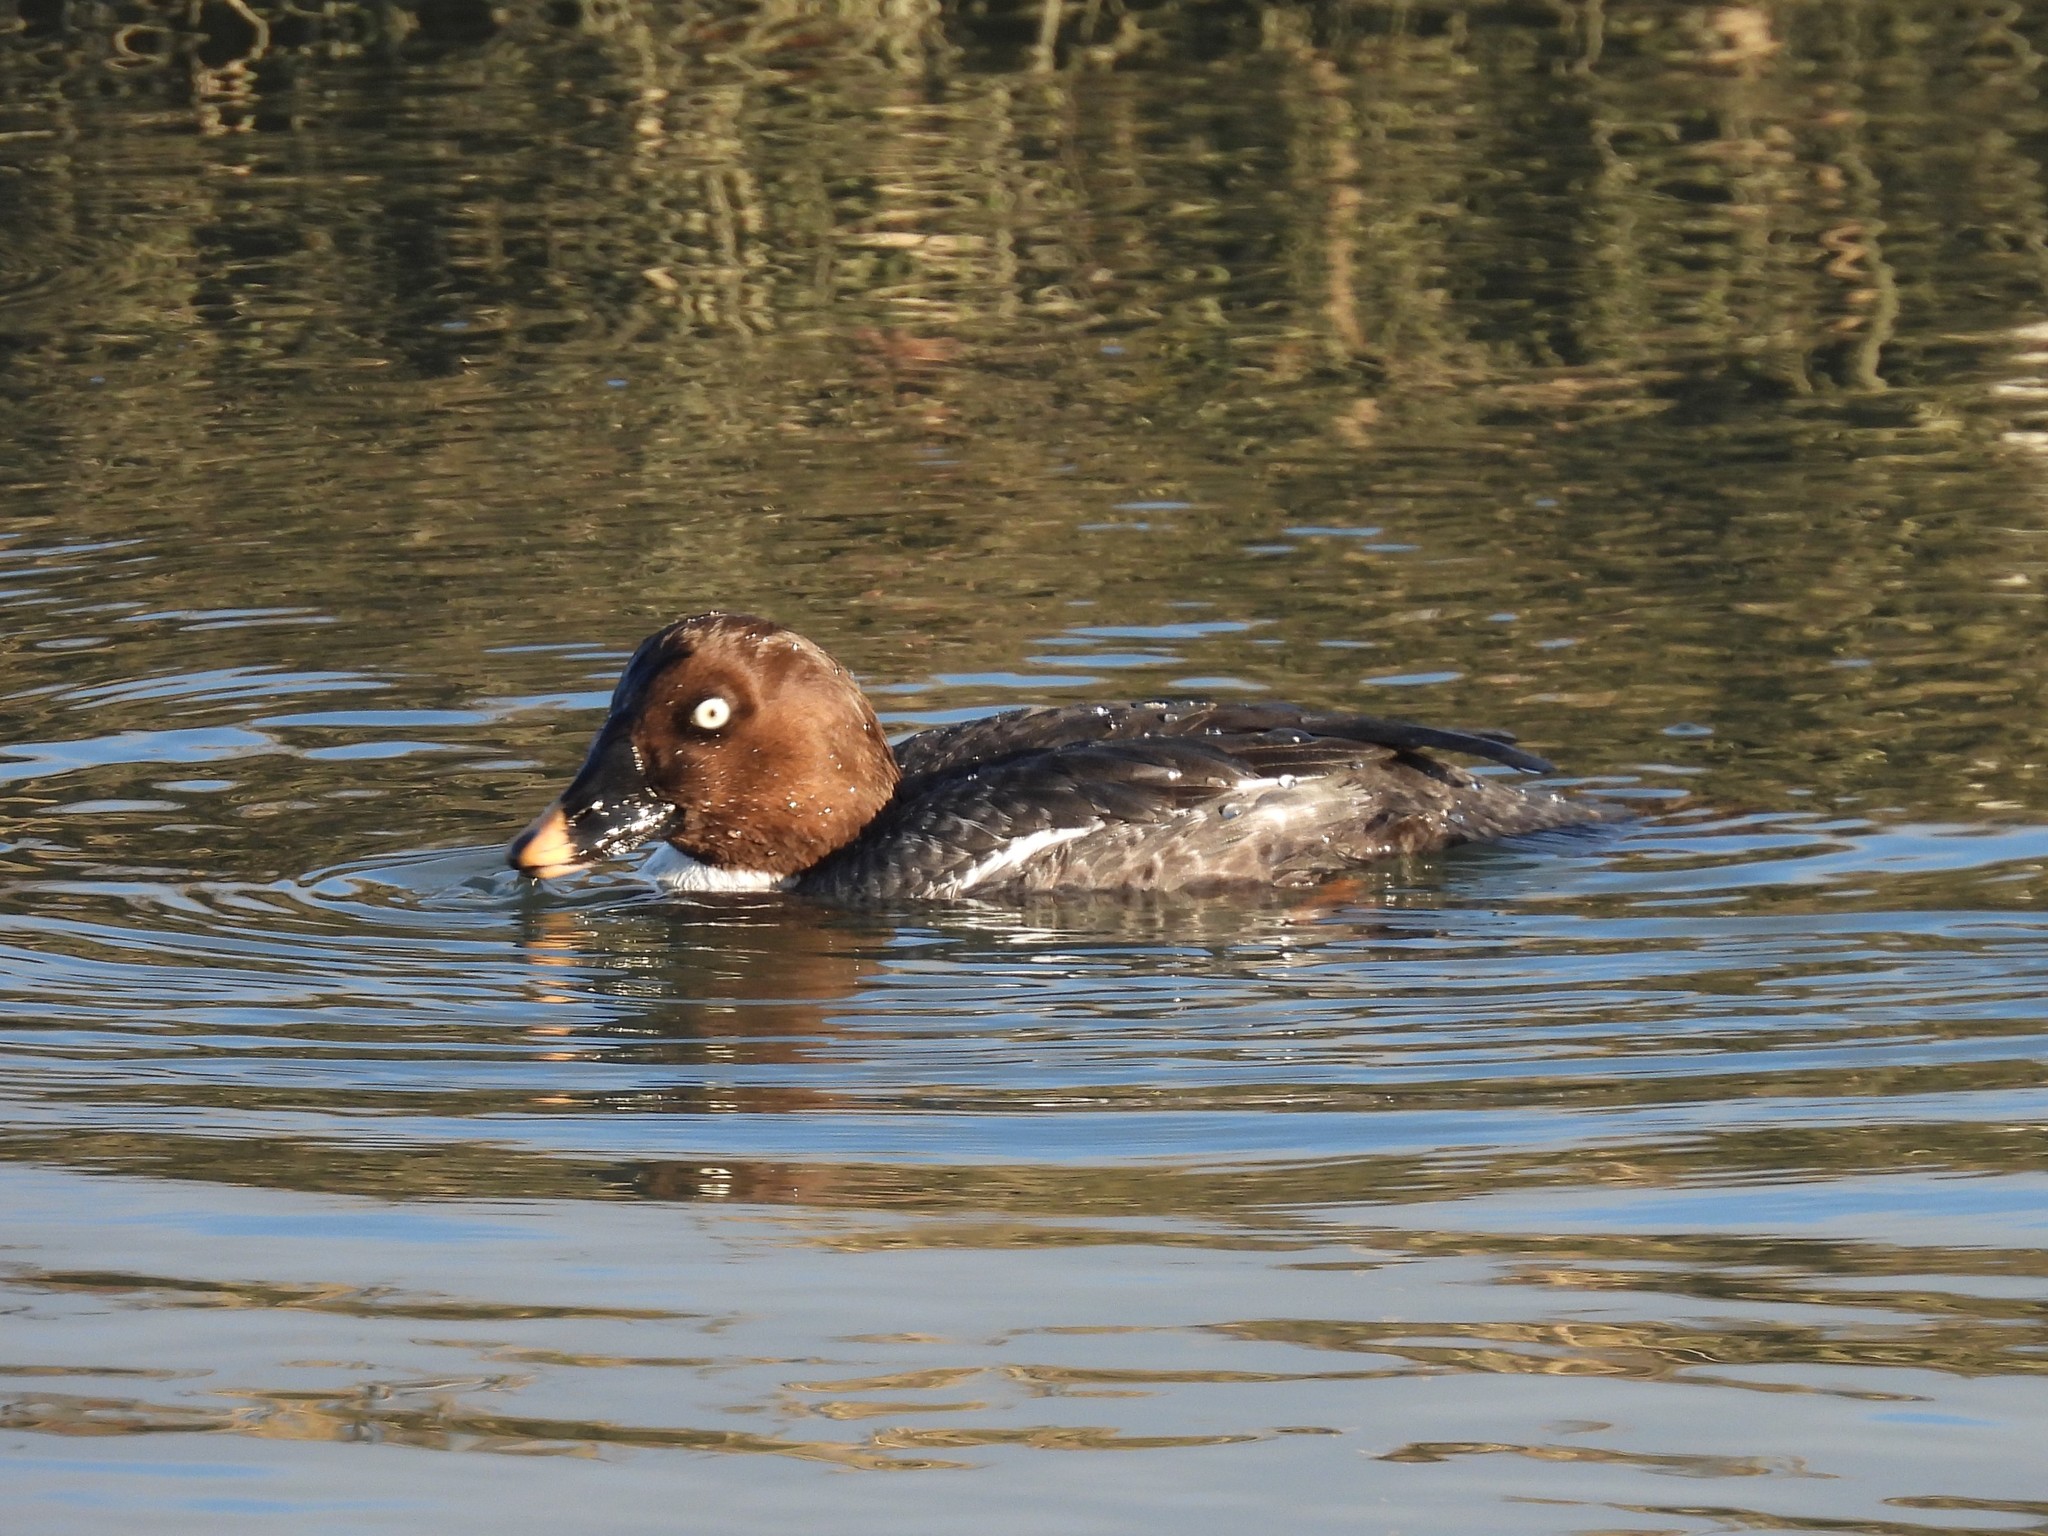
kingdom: Animalia
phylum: Chordata
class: Aves
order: Anseriformes
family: Anatidae
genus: Bucephala
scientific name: Bucephala clangula
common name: Common goldeneye
